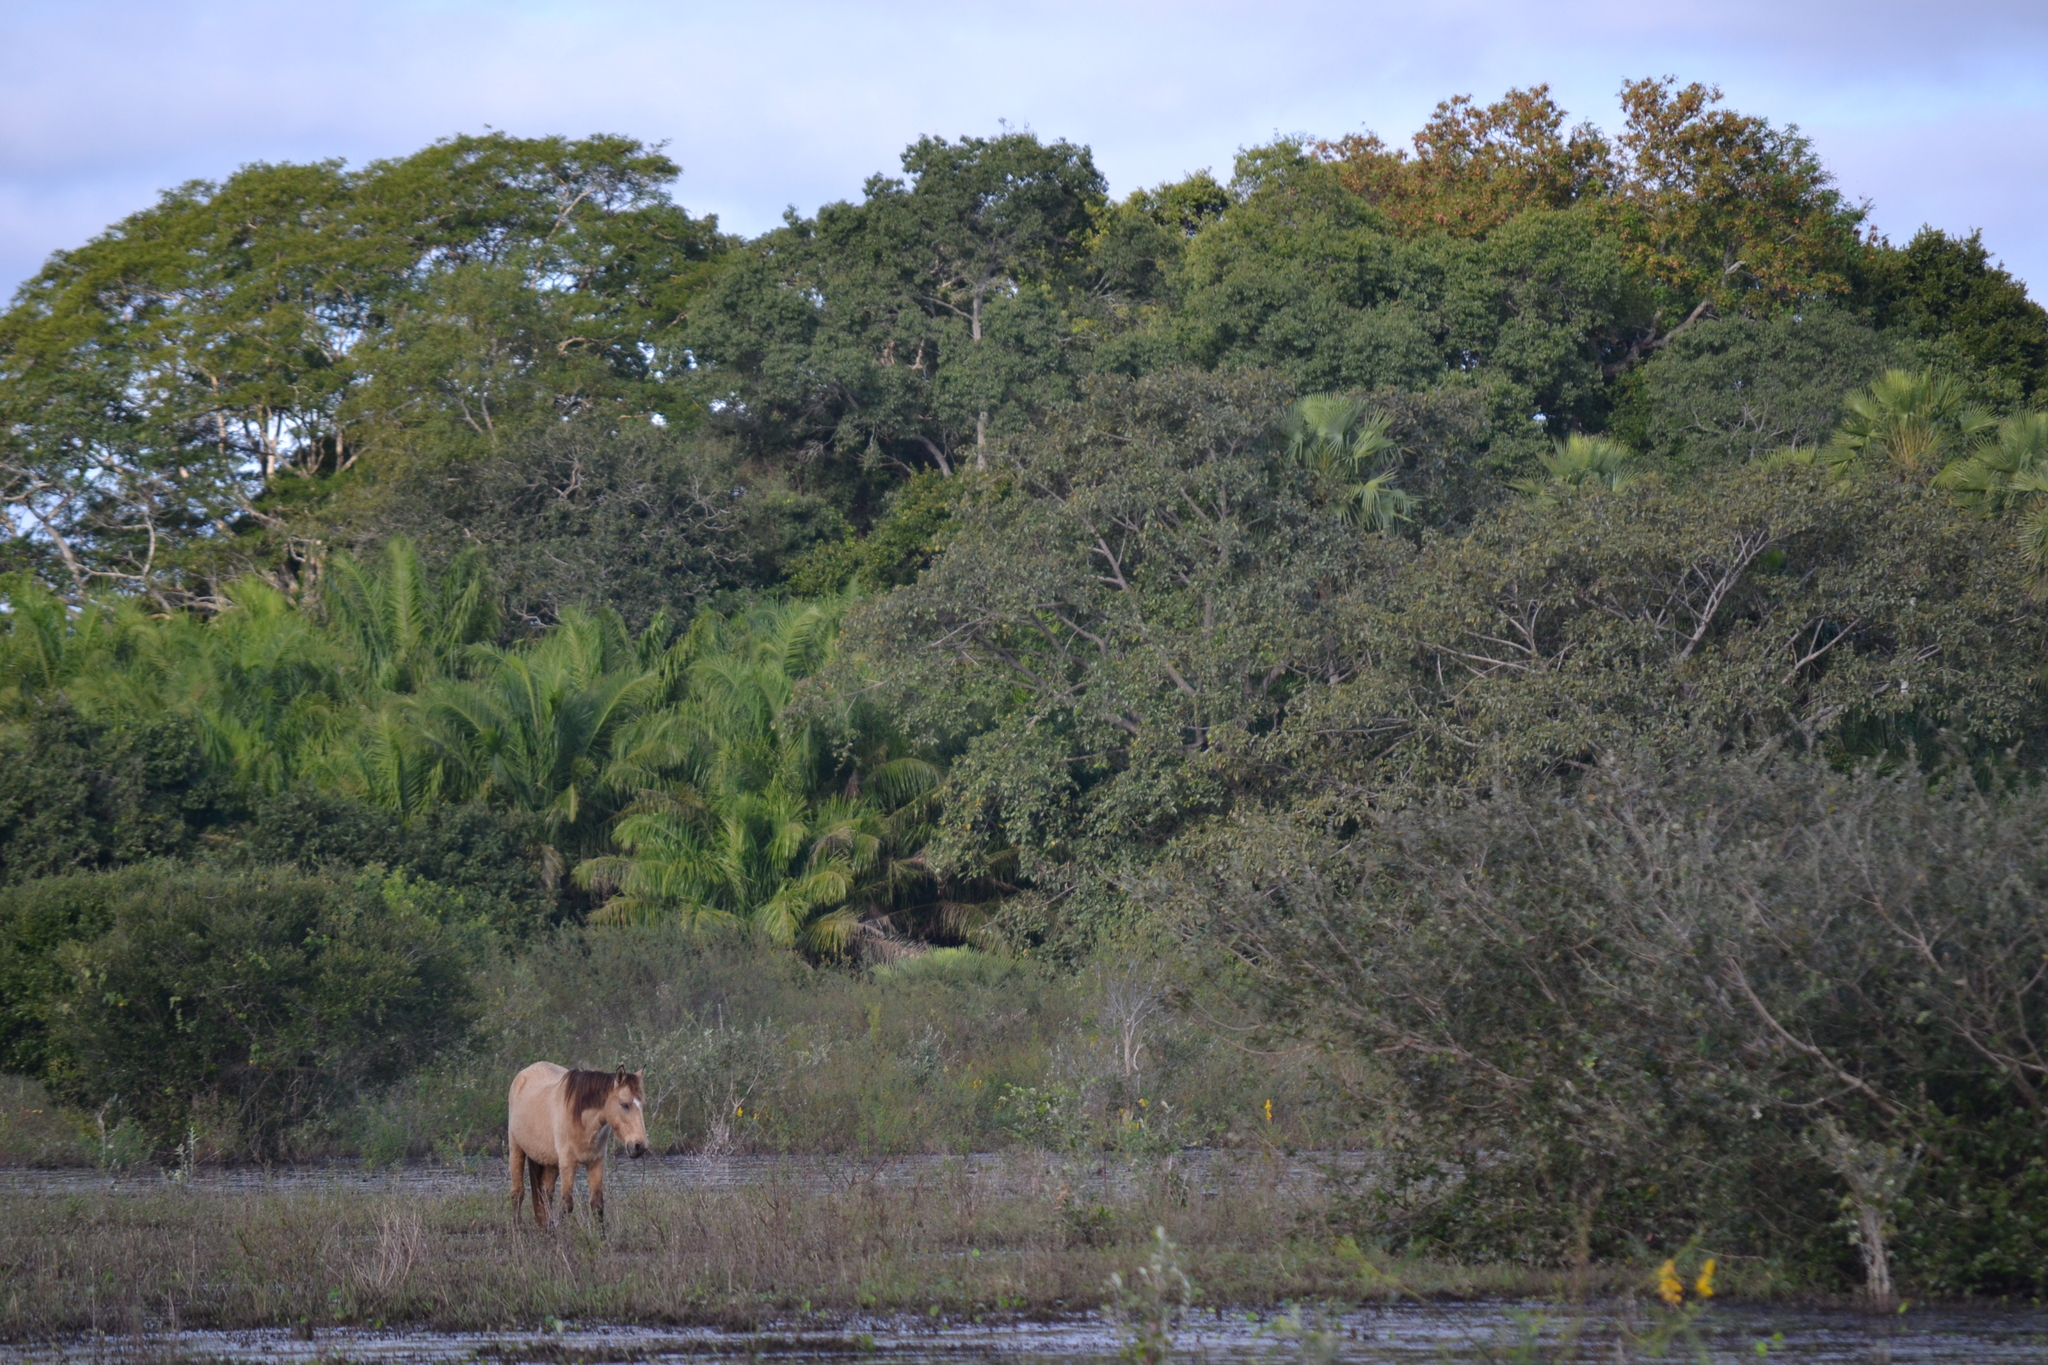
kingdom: Animalia
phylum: Chordata
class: Mammalia
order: Perissodactyla
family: Equidae
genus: Equus
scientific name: Equus caballus
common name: Horse
